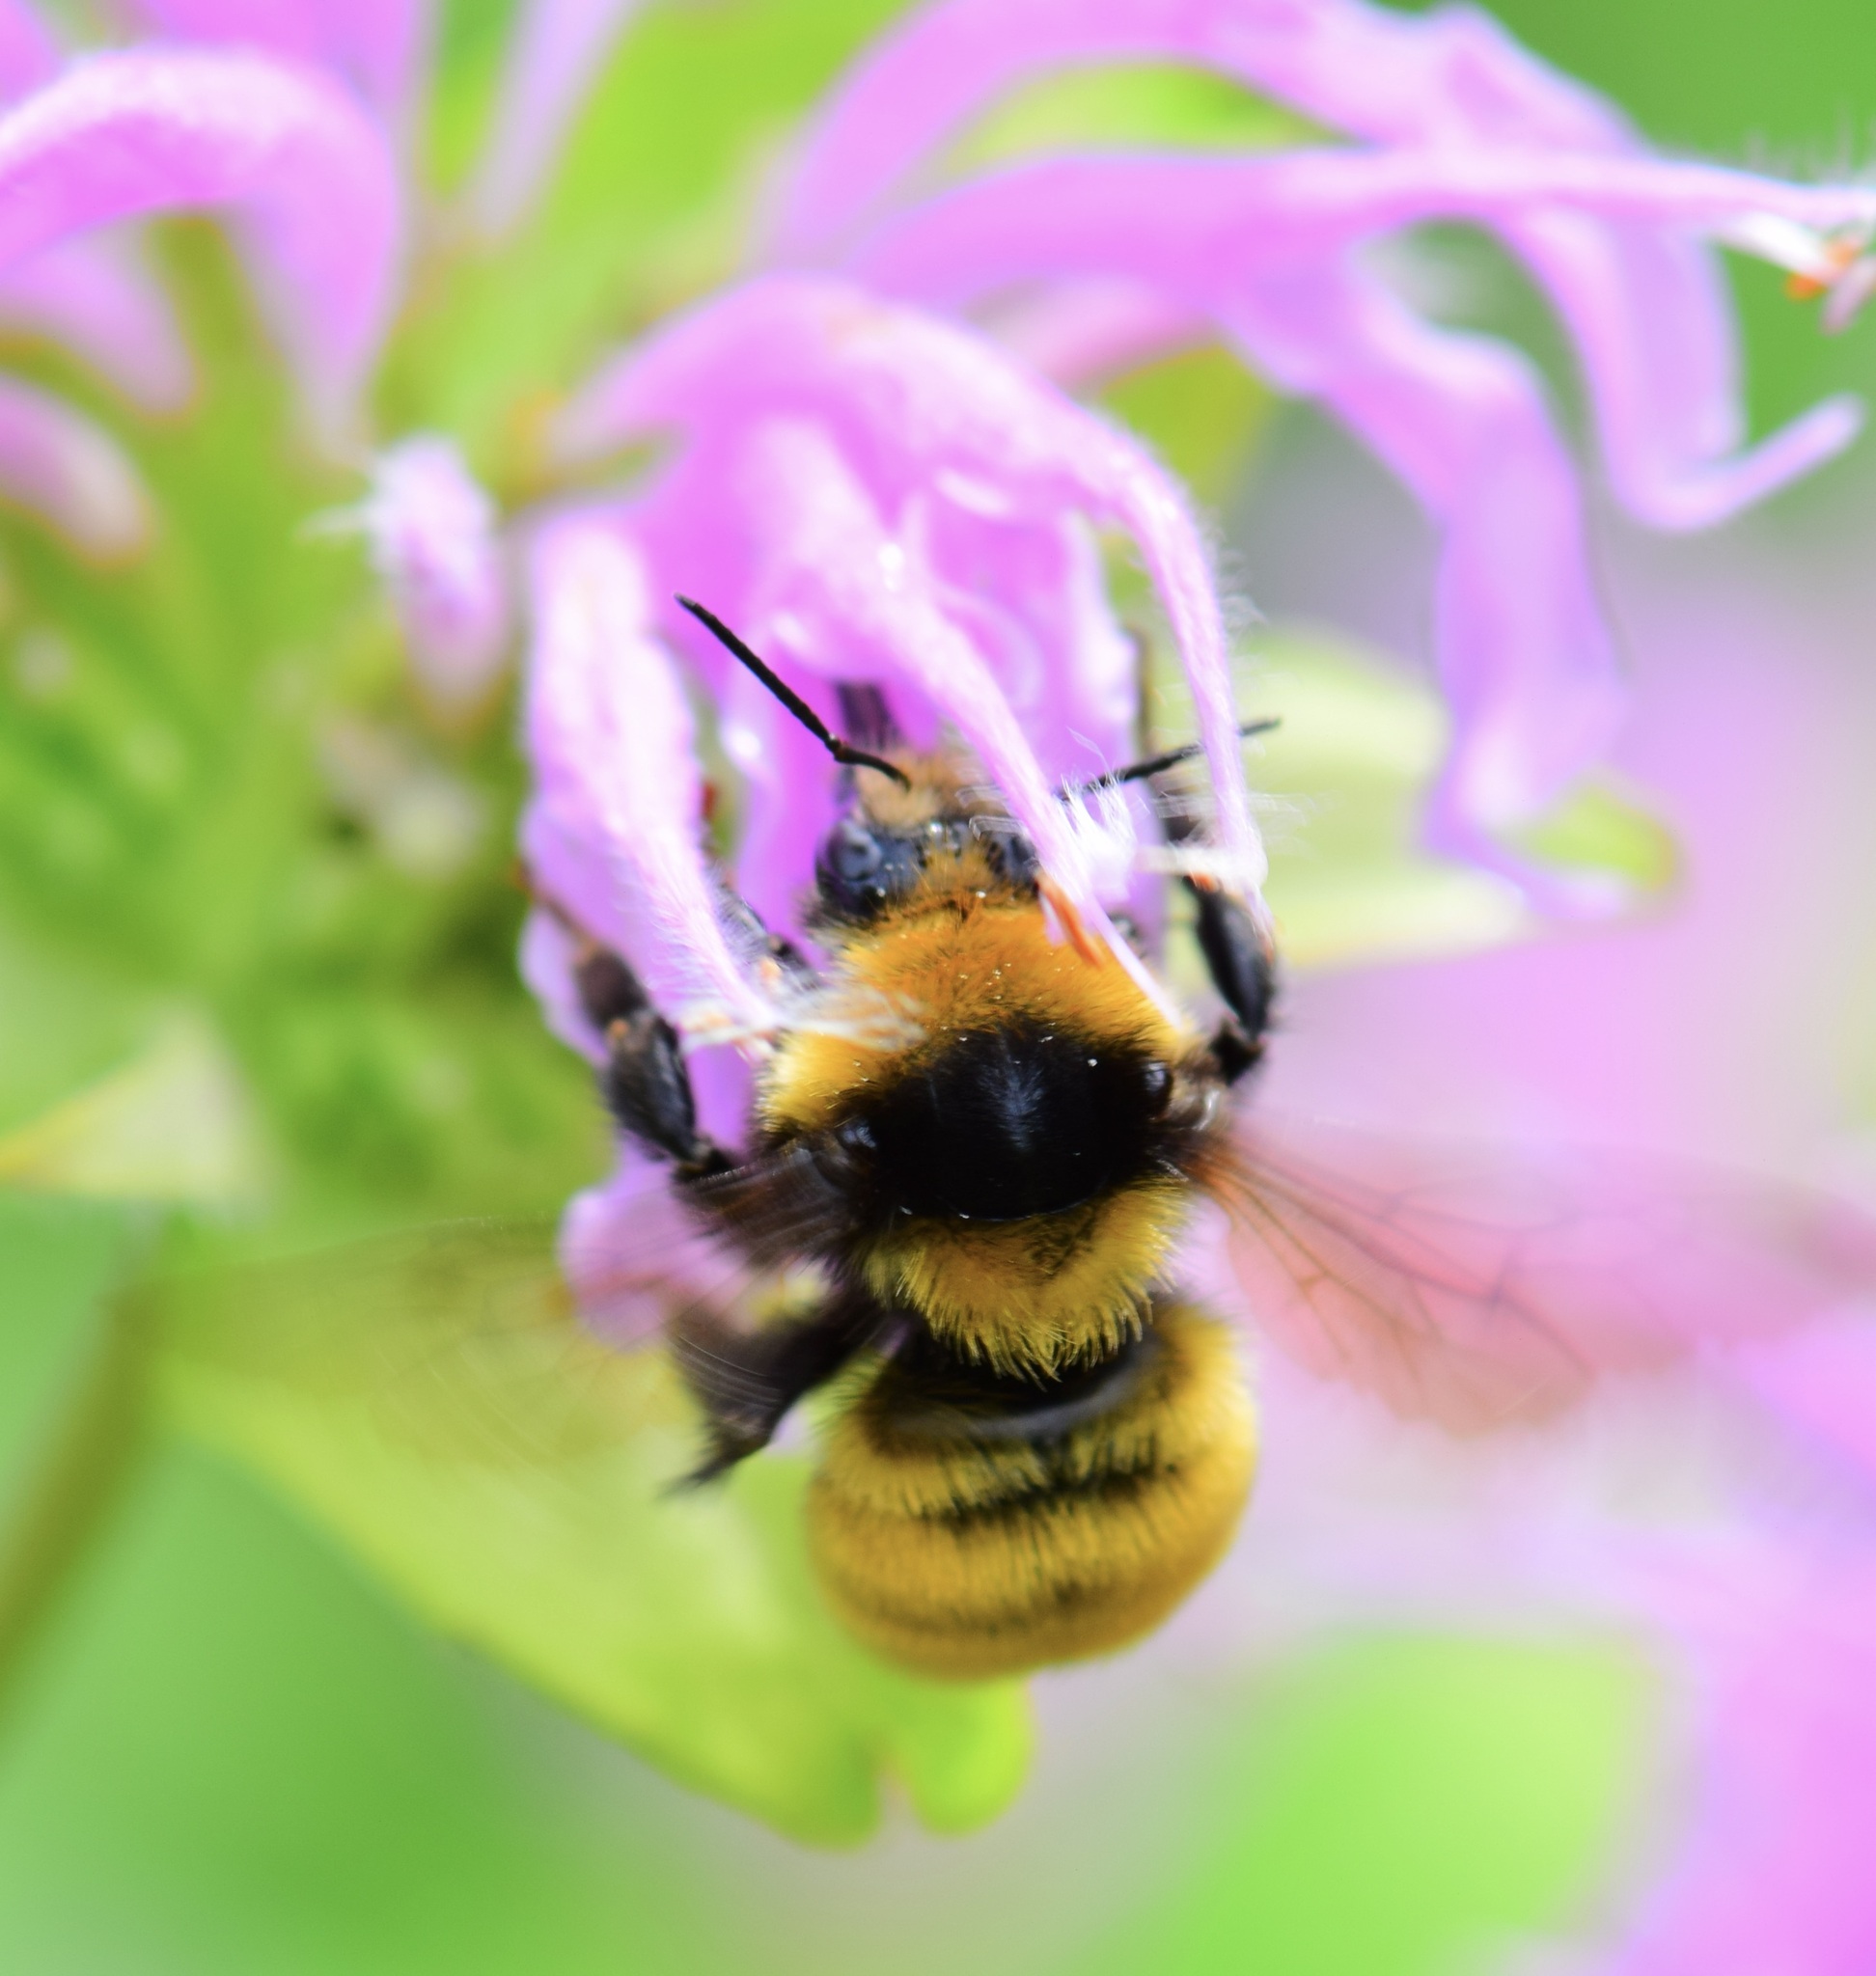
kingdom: Animalia
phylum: Arthropoda
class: Insecta
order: Hymenoptera
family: Apidae
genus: Bombus
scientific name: Bombus borealis
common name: Northern amber bumble bee
